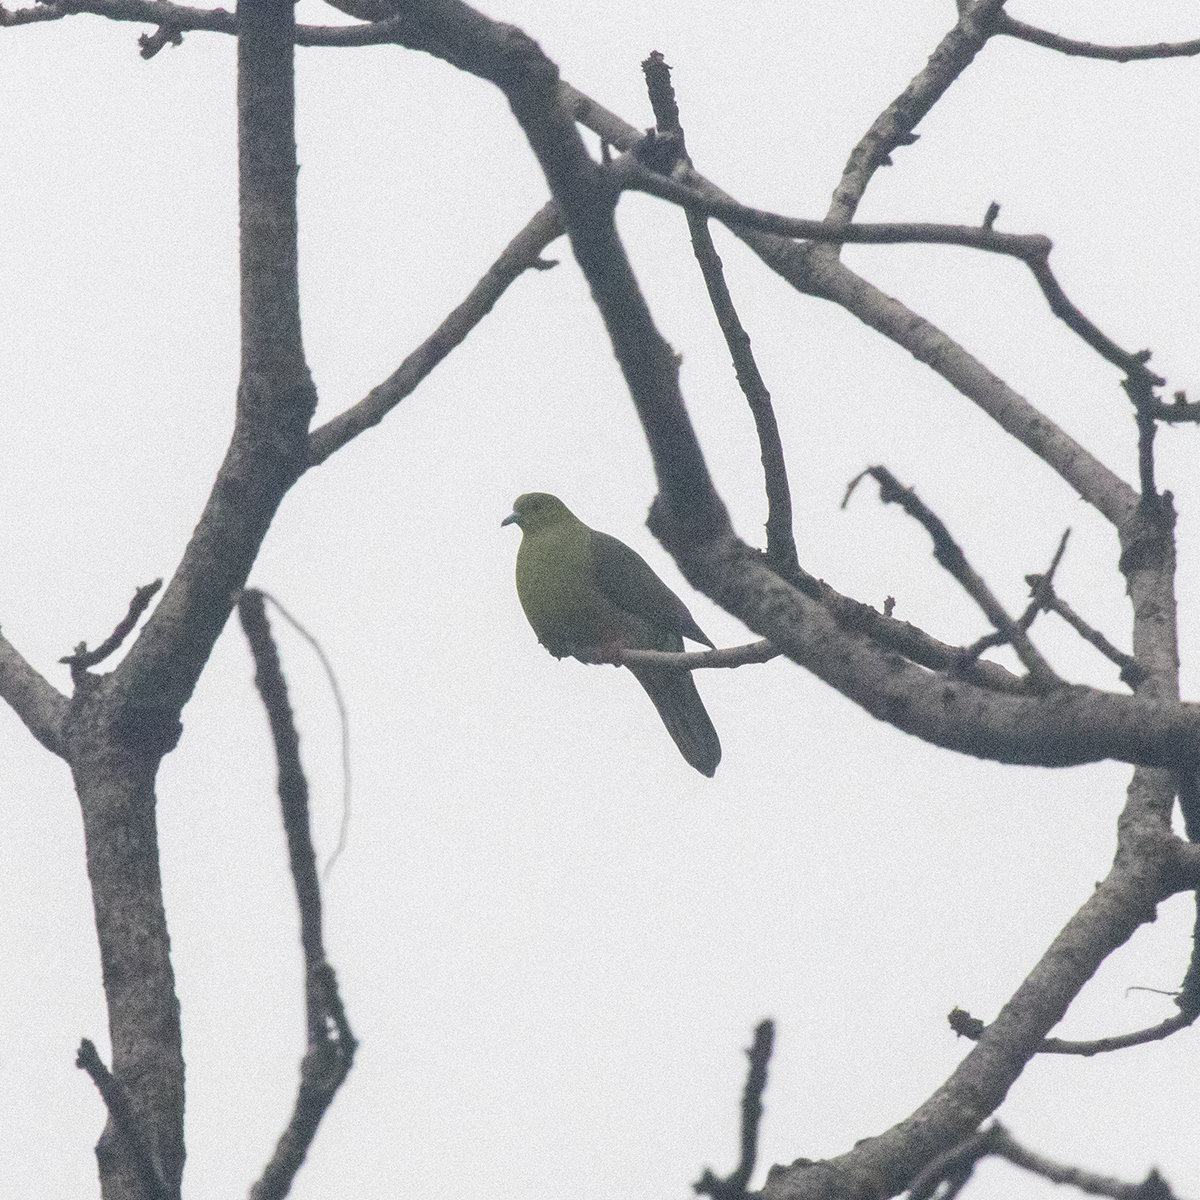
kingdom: Animalia
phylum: Chordata
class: Aves
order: Columbiformes
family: Columbidae
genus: Treron
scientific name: Treron sphenurus
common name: Wedge-tailed green pigeon
